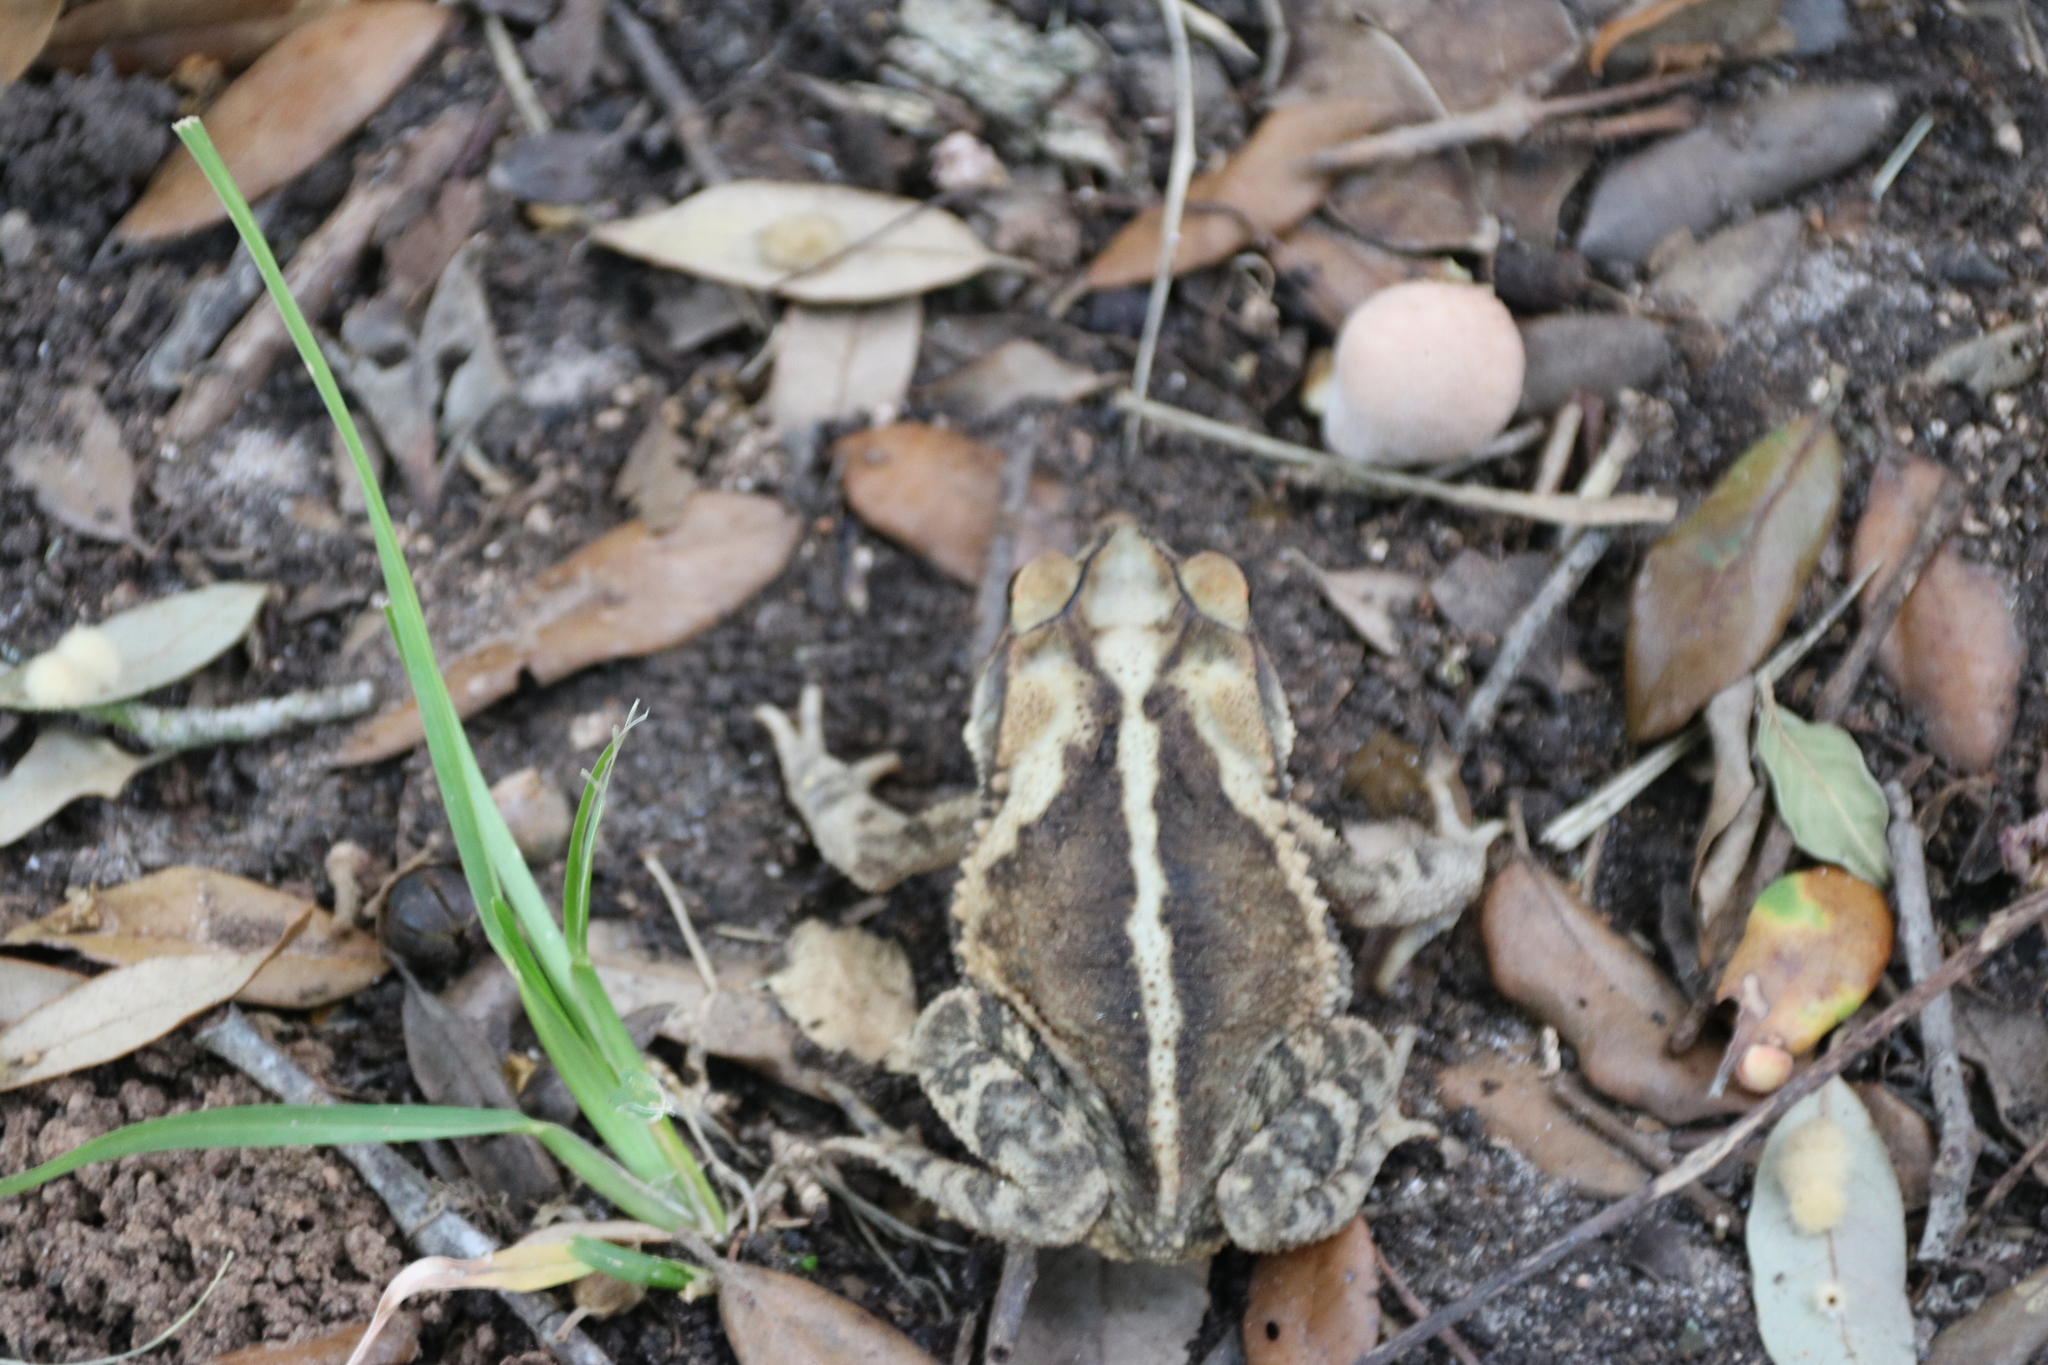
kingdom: Animalia
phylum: Chordata
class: Amphibia
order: Anura
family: Bufonidae
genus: Incilius
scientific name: Incilius nebulifer
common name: Gulf coast toad
